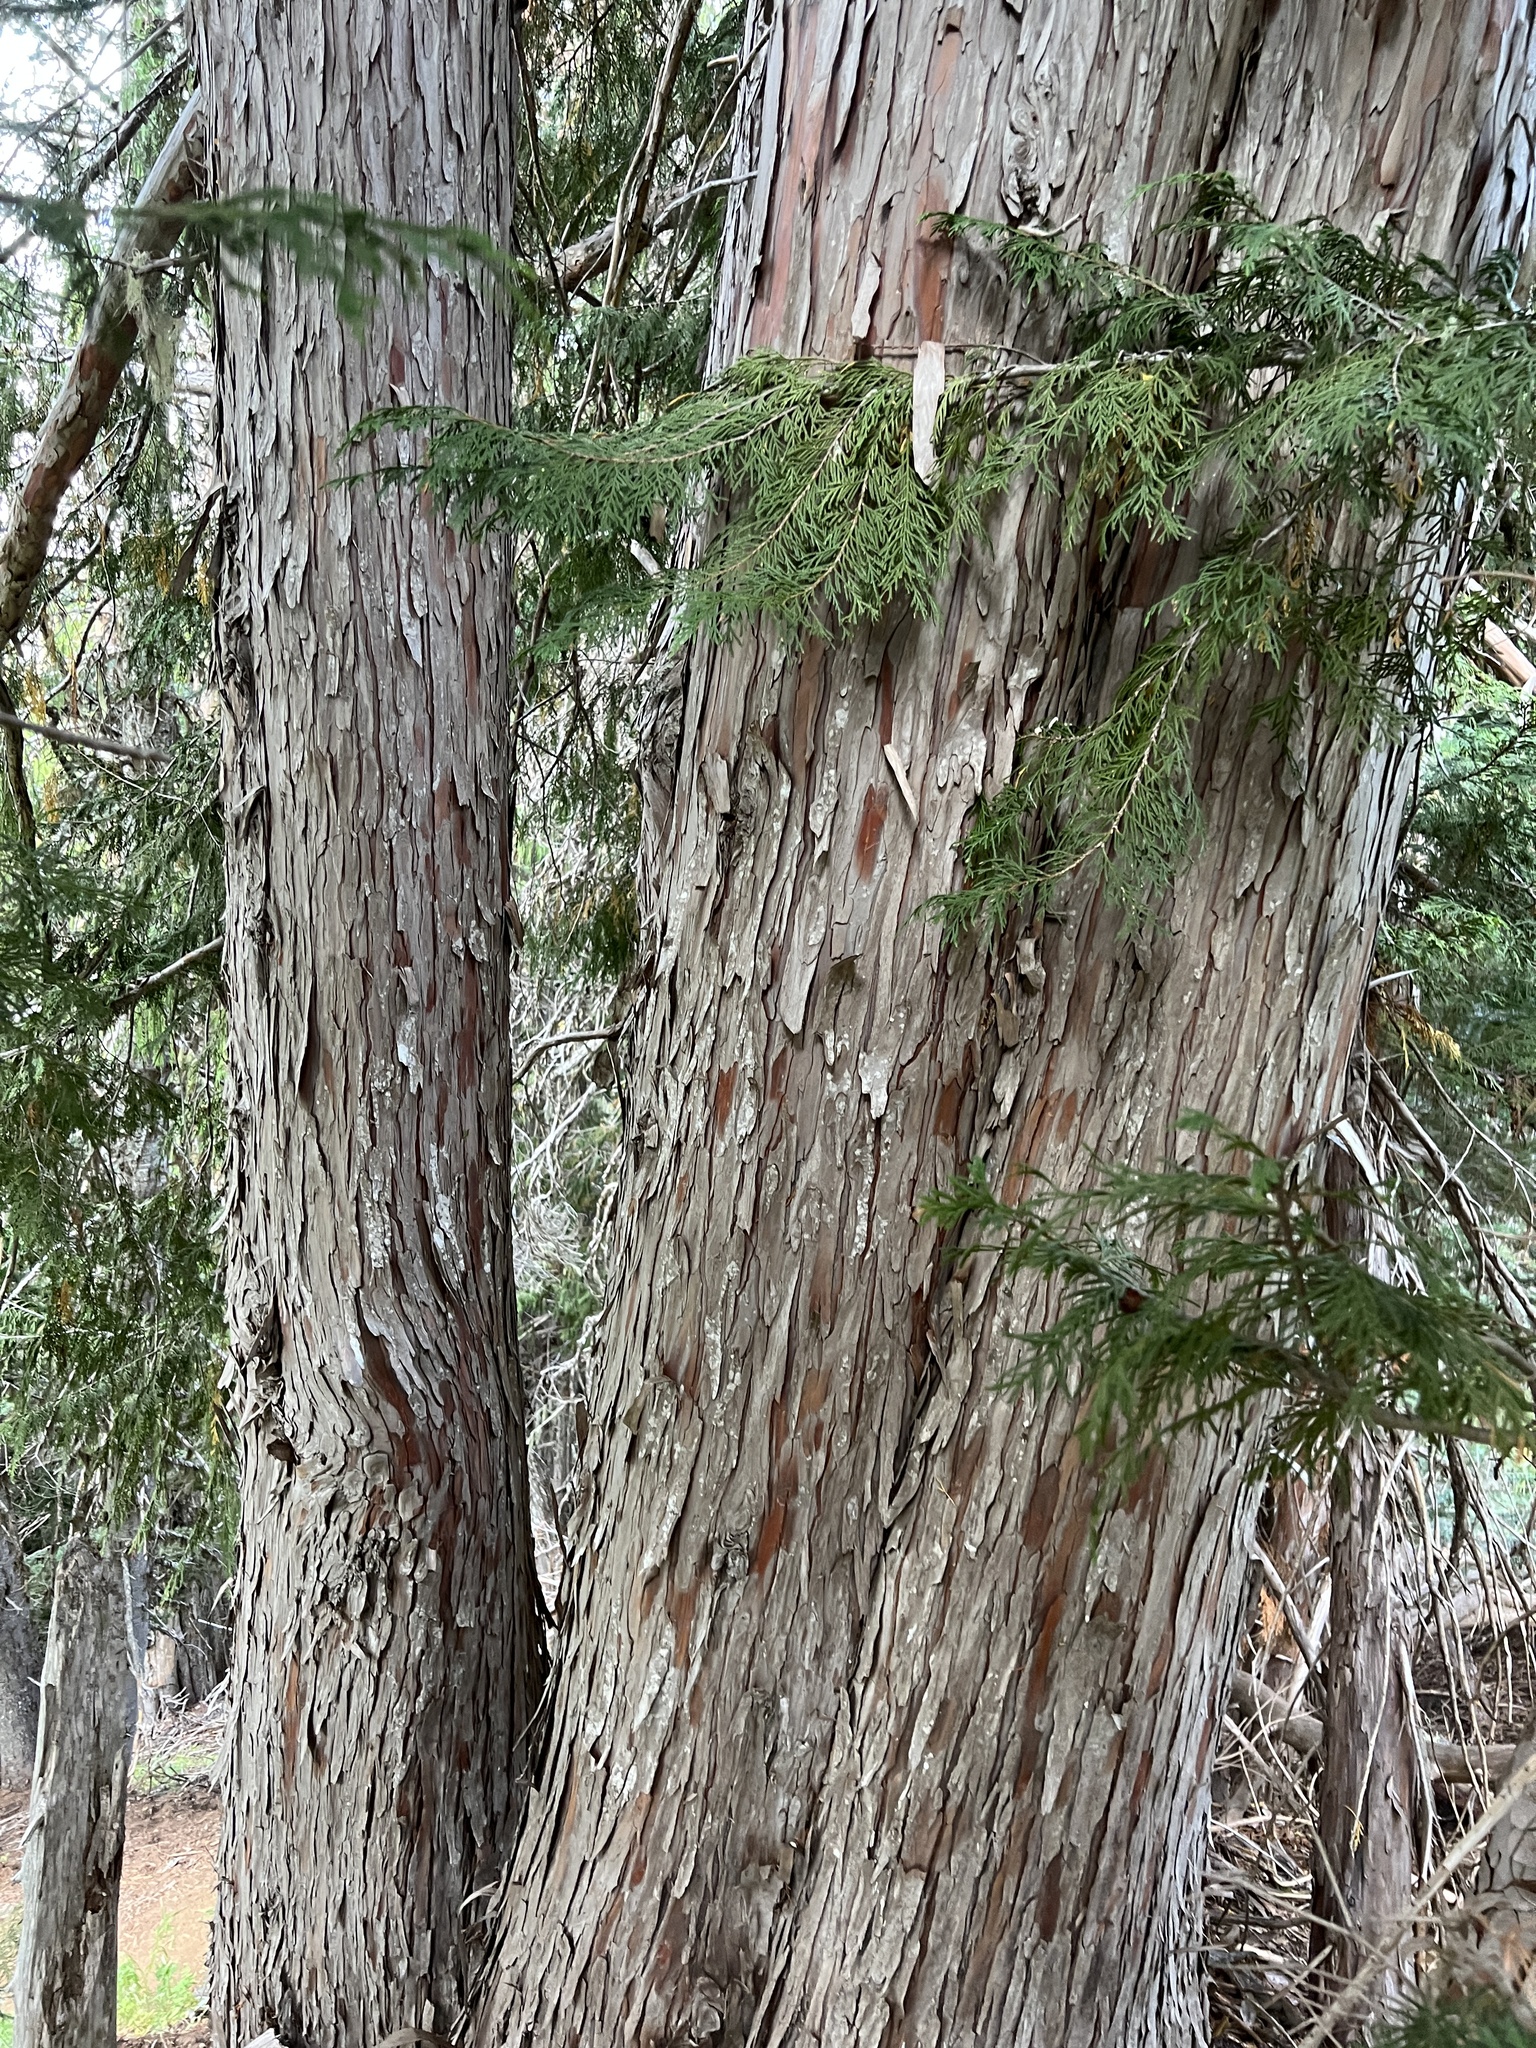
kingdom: Plantae
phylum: Tracheophyta
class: Pinopsida
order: Pinales
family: Cupressaceae
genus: Xanthocyparis
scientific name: Xanthocyparis nootkatensis
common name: Nootka cypress
